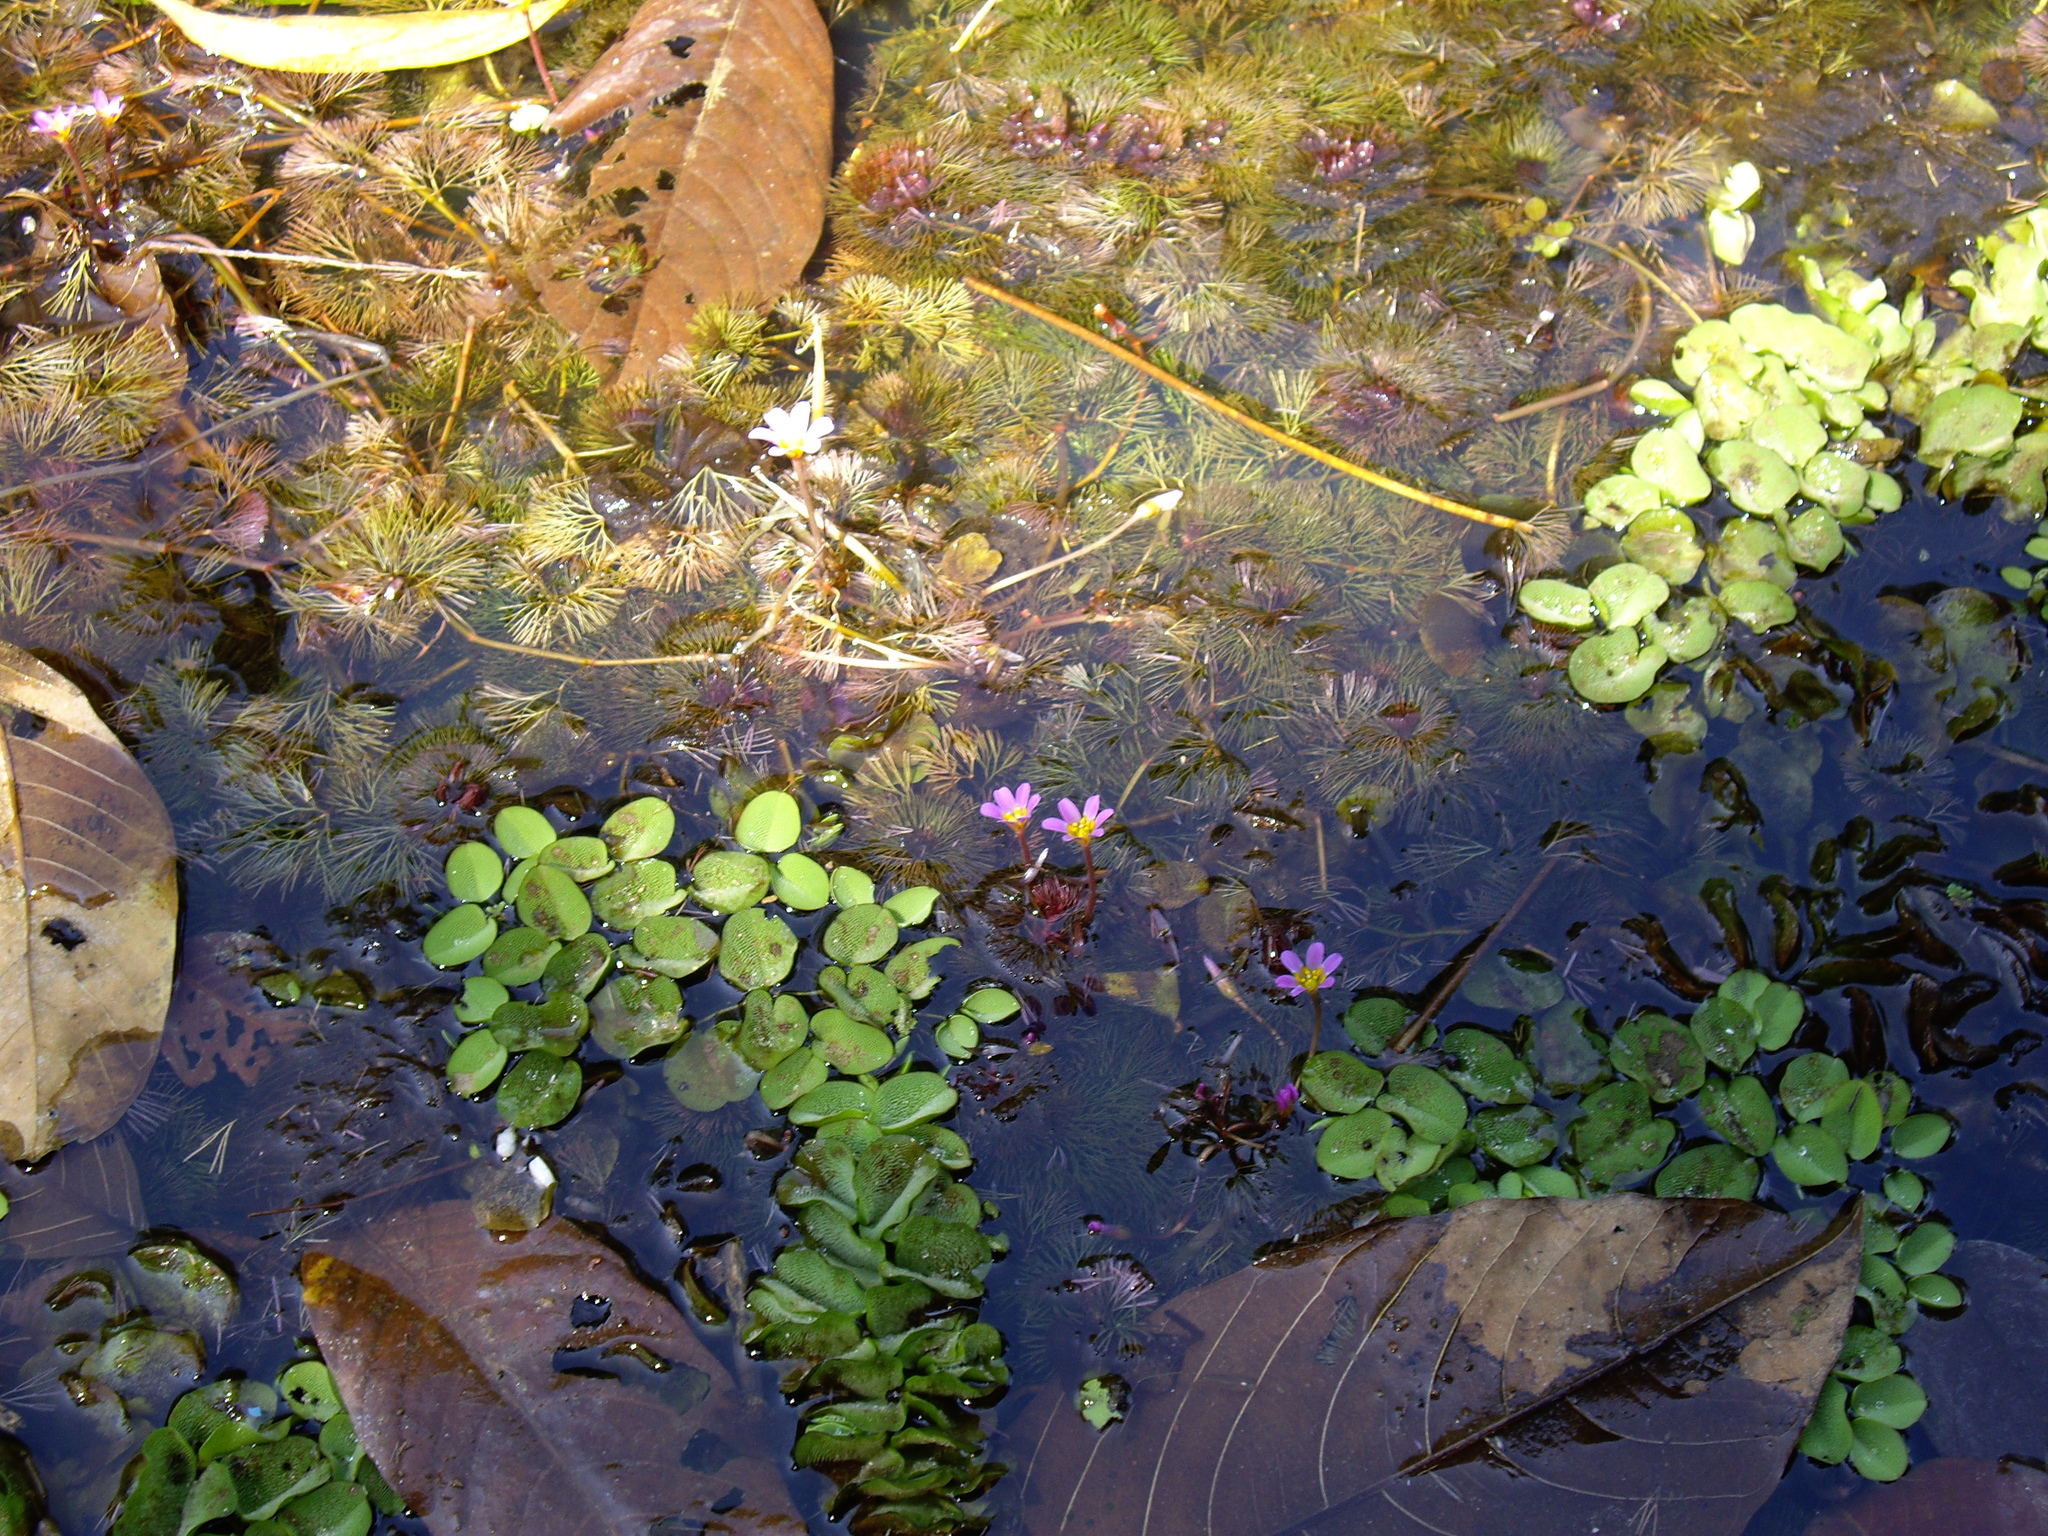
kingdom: Plantae
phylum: Tracheophyta
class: Magnoliopsida
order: Nymphaeales
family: Cabombaceae
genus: Cabomba
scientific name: Cabomba furcata
